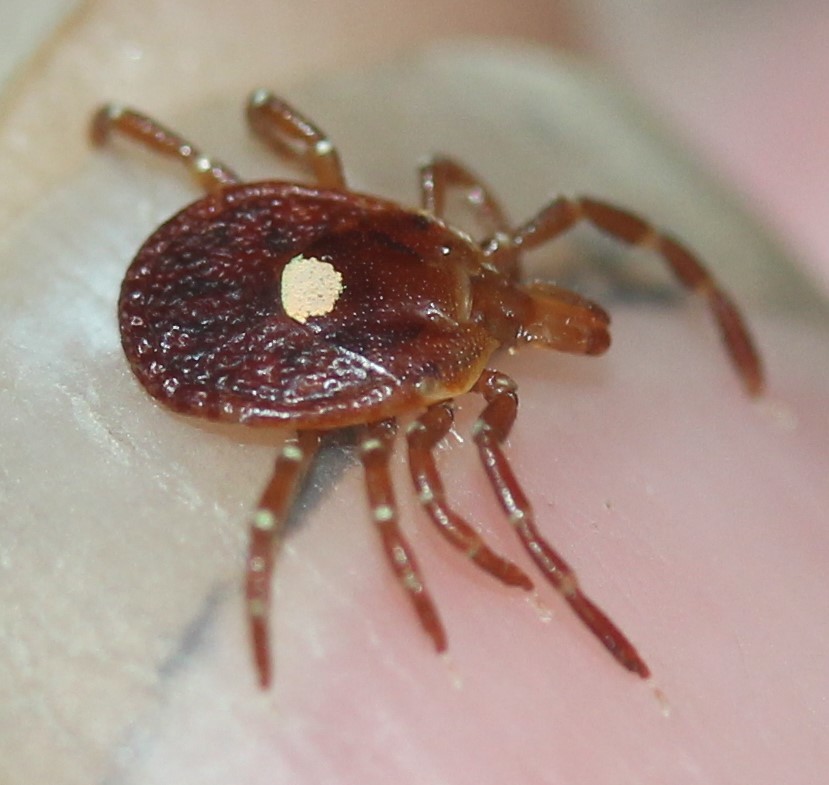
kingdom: Animalia
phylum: Arthropoda
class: Arachnida
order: Ixodida
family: Ixodidae
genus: Amblyomma
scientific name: Amblyomma americanum
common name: Lone star tick
